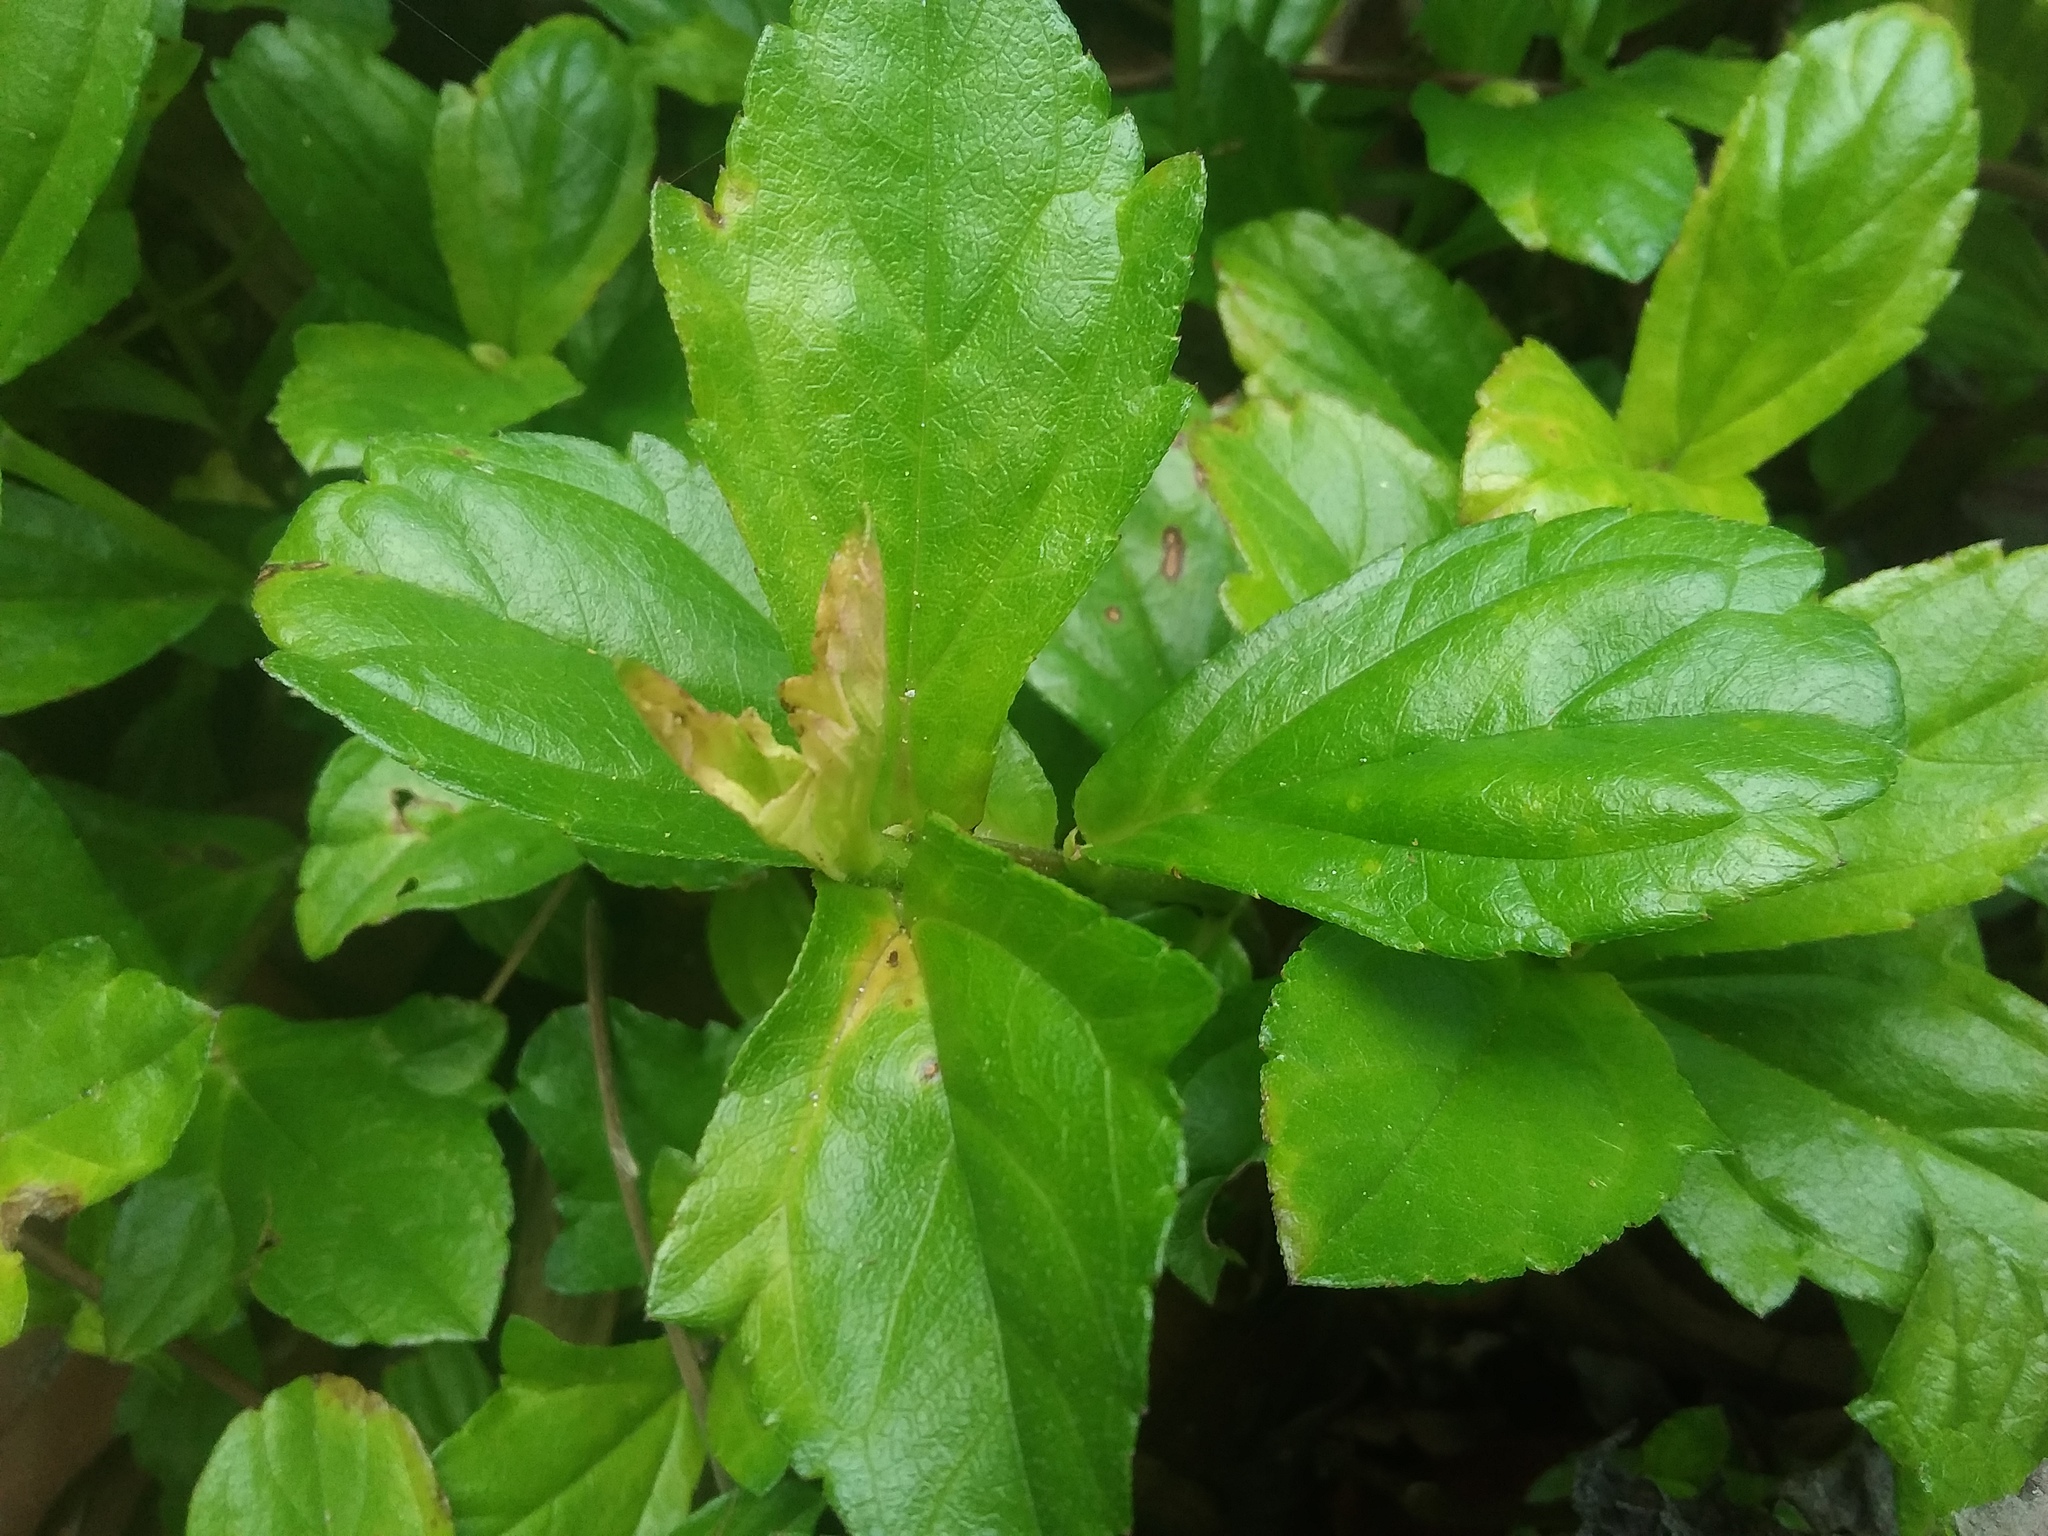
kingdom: Plantae
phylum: Tracheophyta
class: Magnoliopsida
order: Asterales
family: Asteraceae
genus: Sphagneticola
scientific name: Sphagneticola trilobata
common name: Bay biscayne creeping-oxeye
